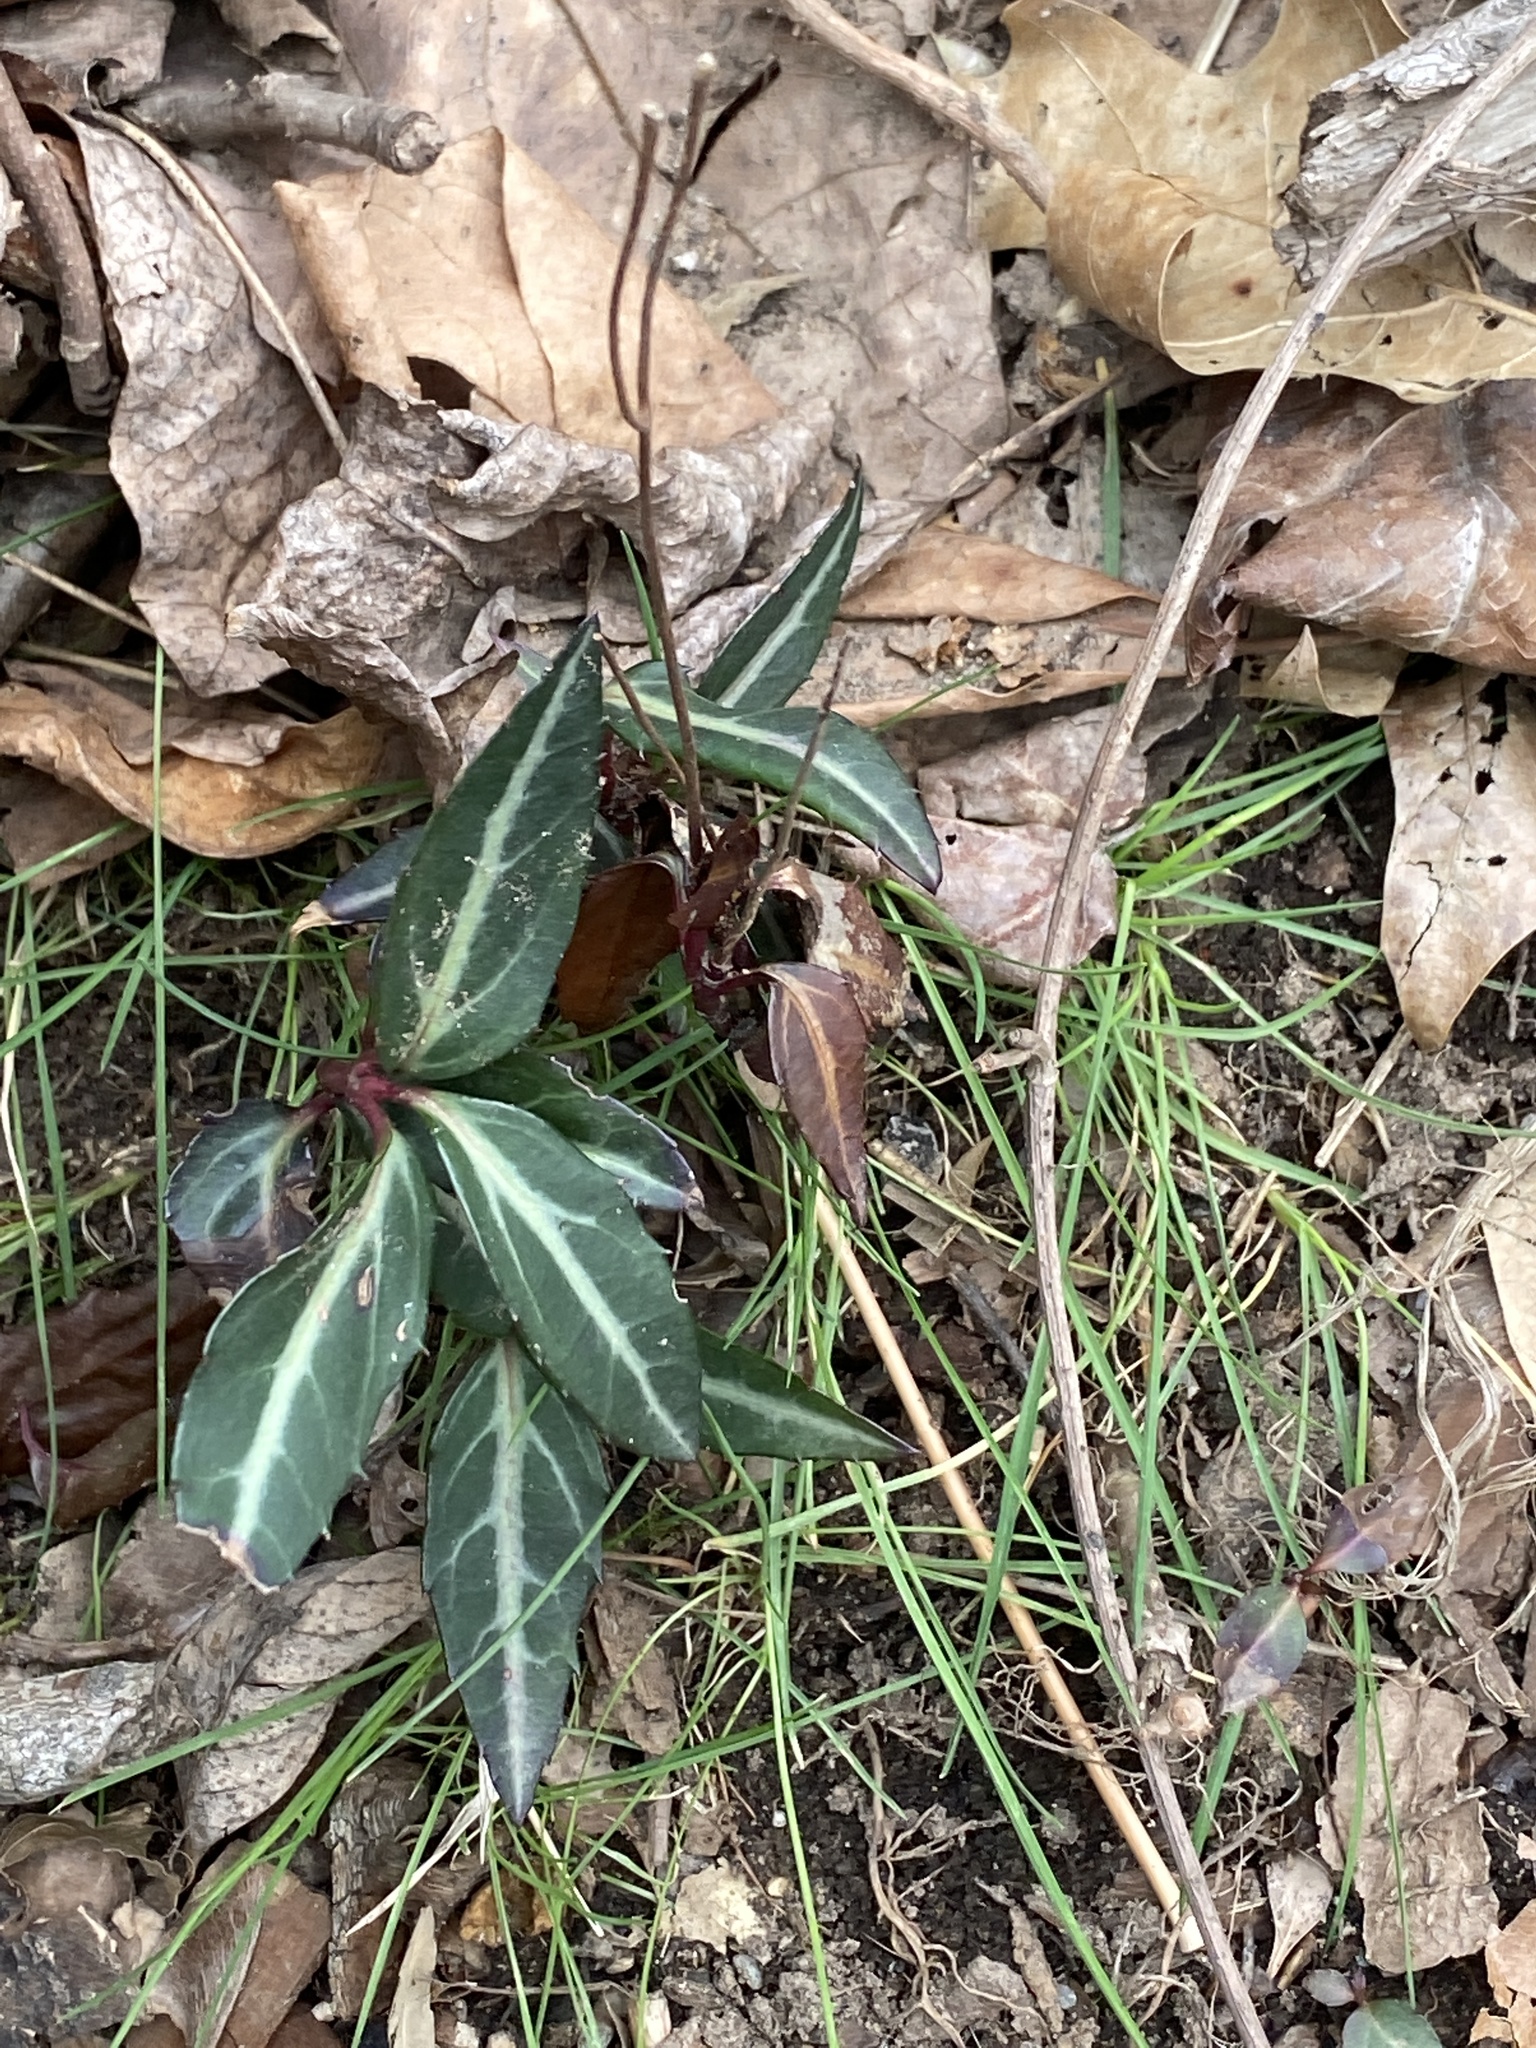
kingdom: Plantae
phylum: Tracheophyta
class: Magnoliopsida
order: Ericales
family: Ericaceae
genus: Chimaphila
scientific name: Chimaphila maculata
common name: Spotted pipsissewa
